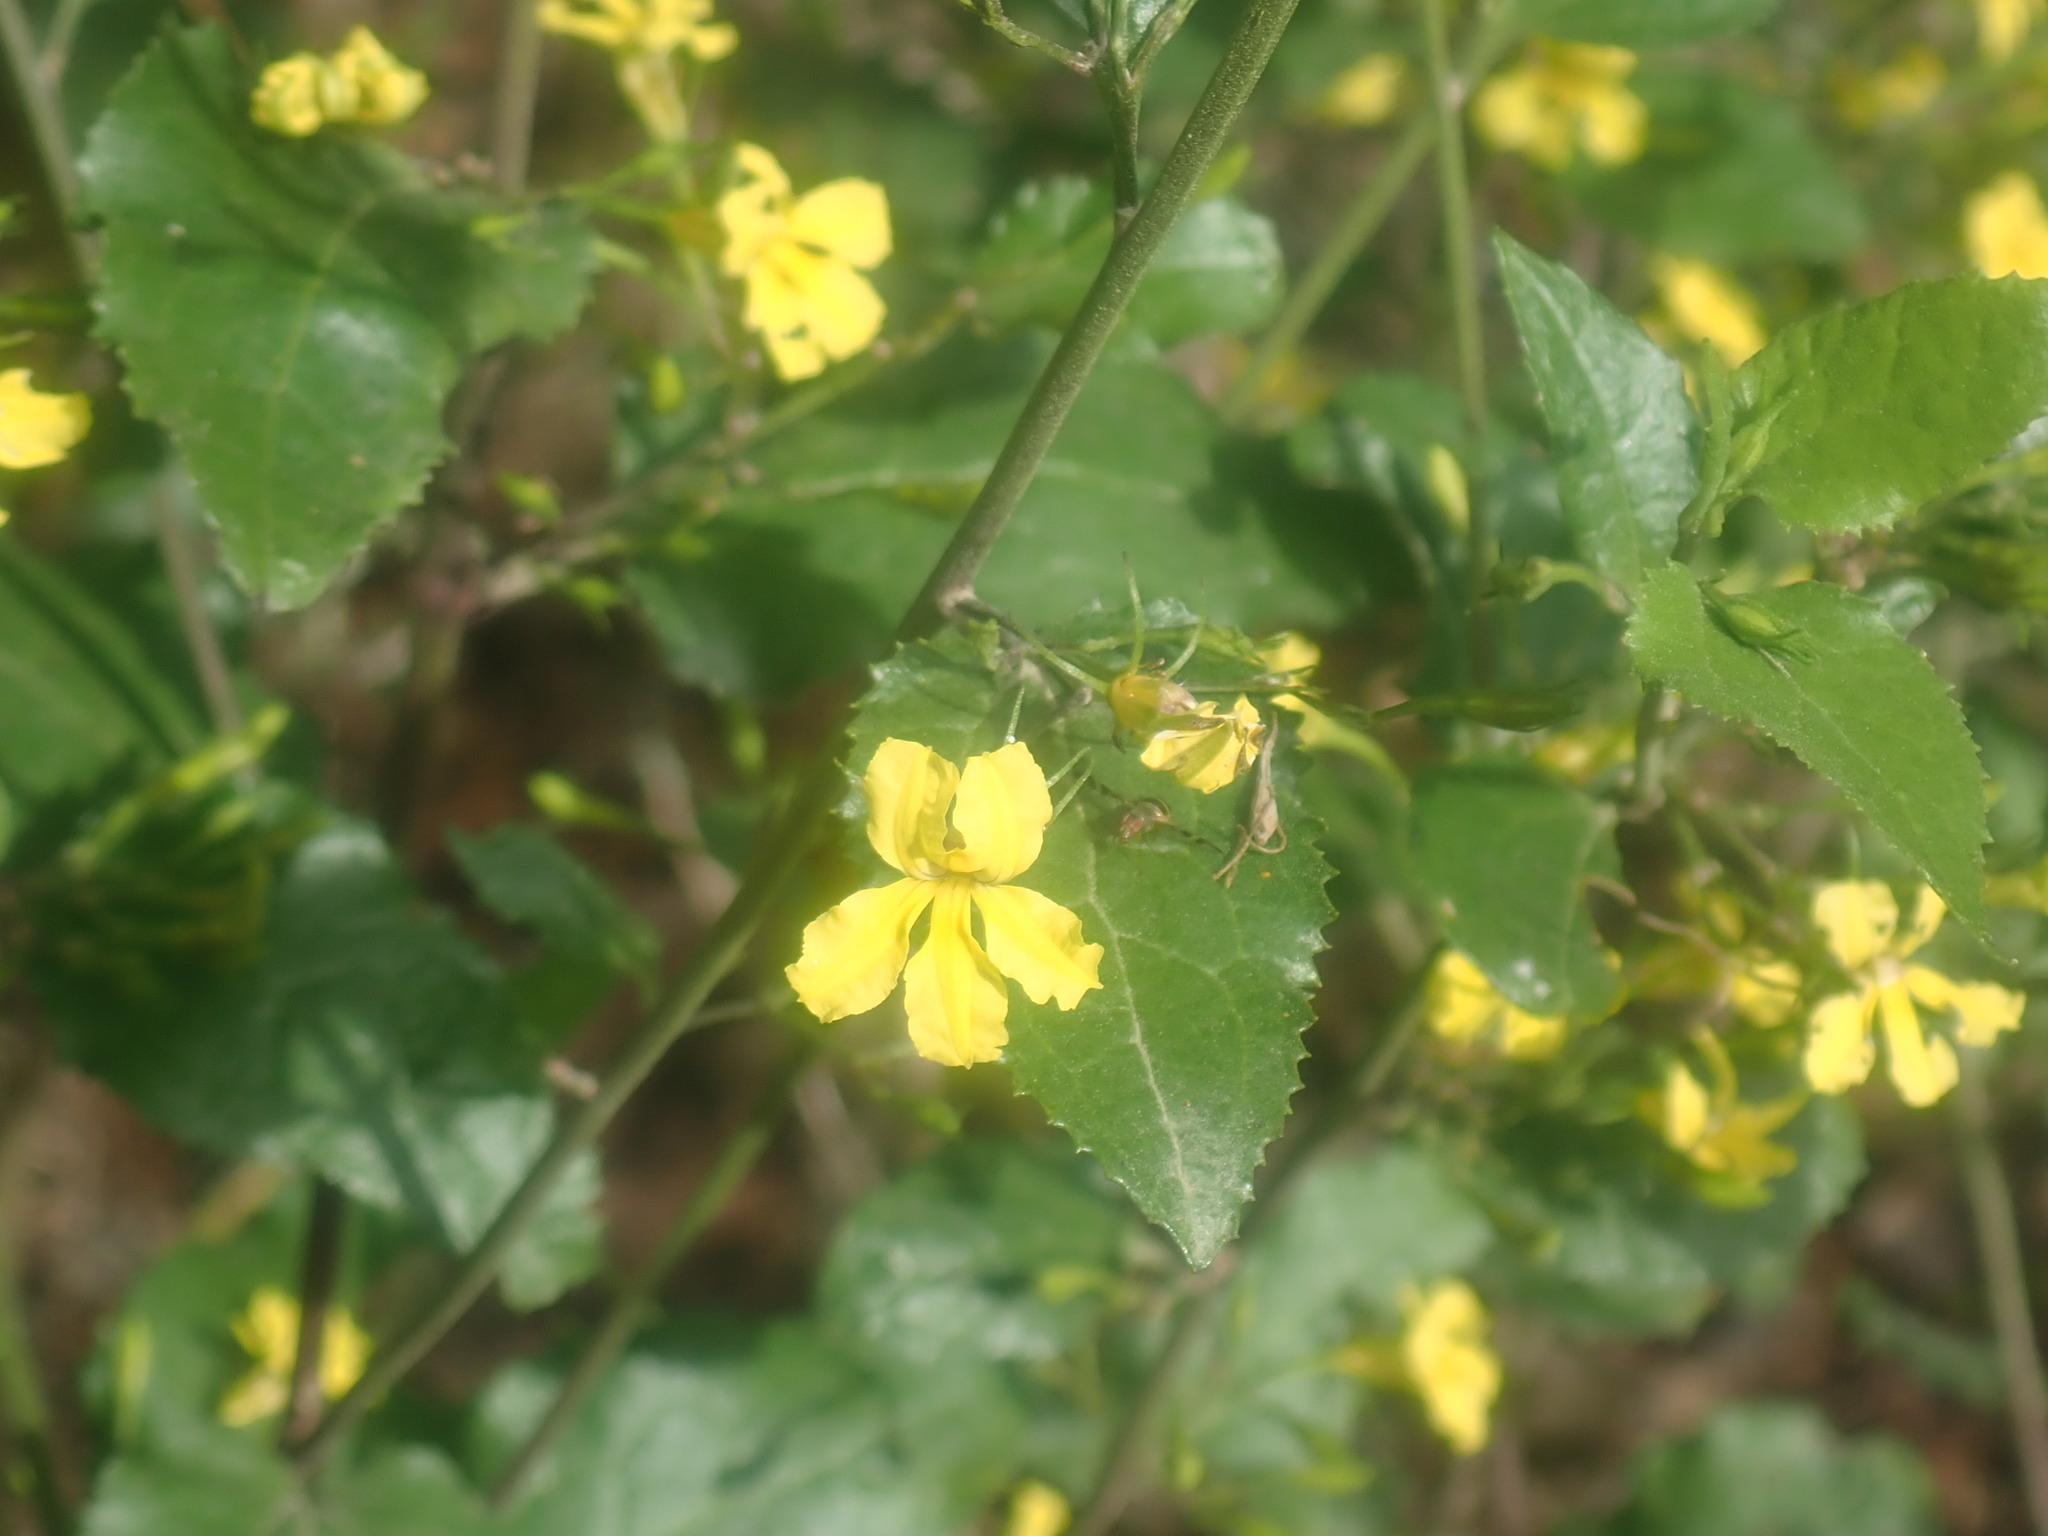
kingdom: Plantae
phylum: Tracheophyta
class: Magnoliopsida
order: Asterales
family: Goodeniaceae
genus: Goodenia
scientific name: Goodenia ovata
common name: Hop goodenia
